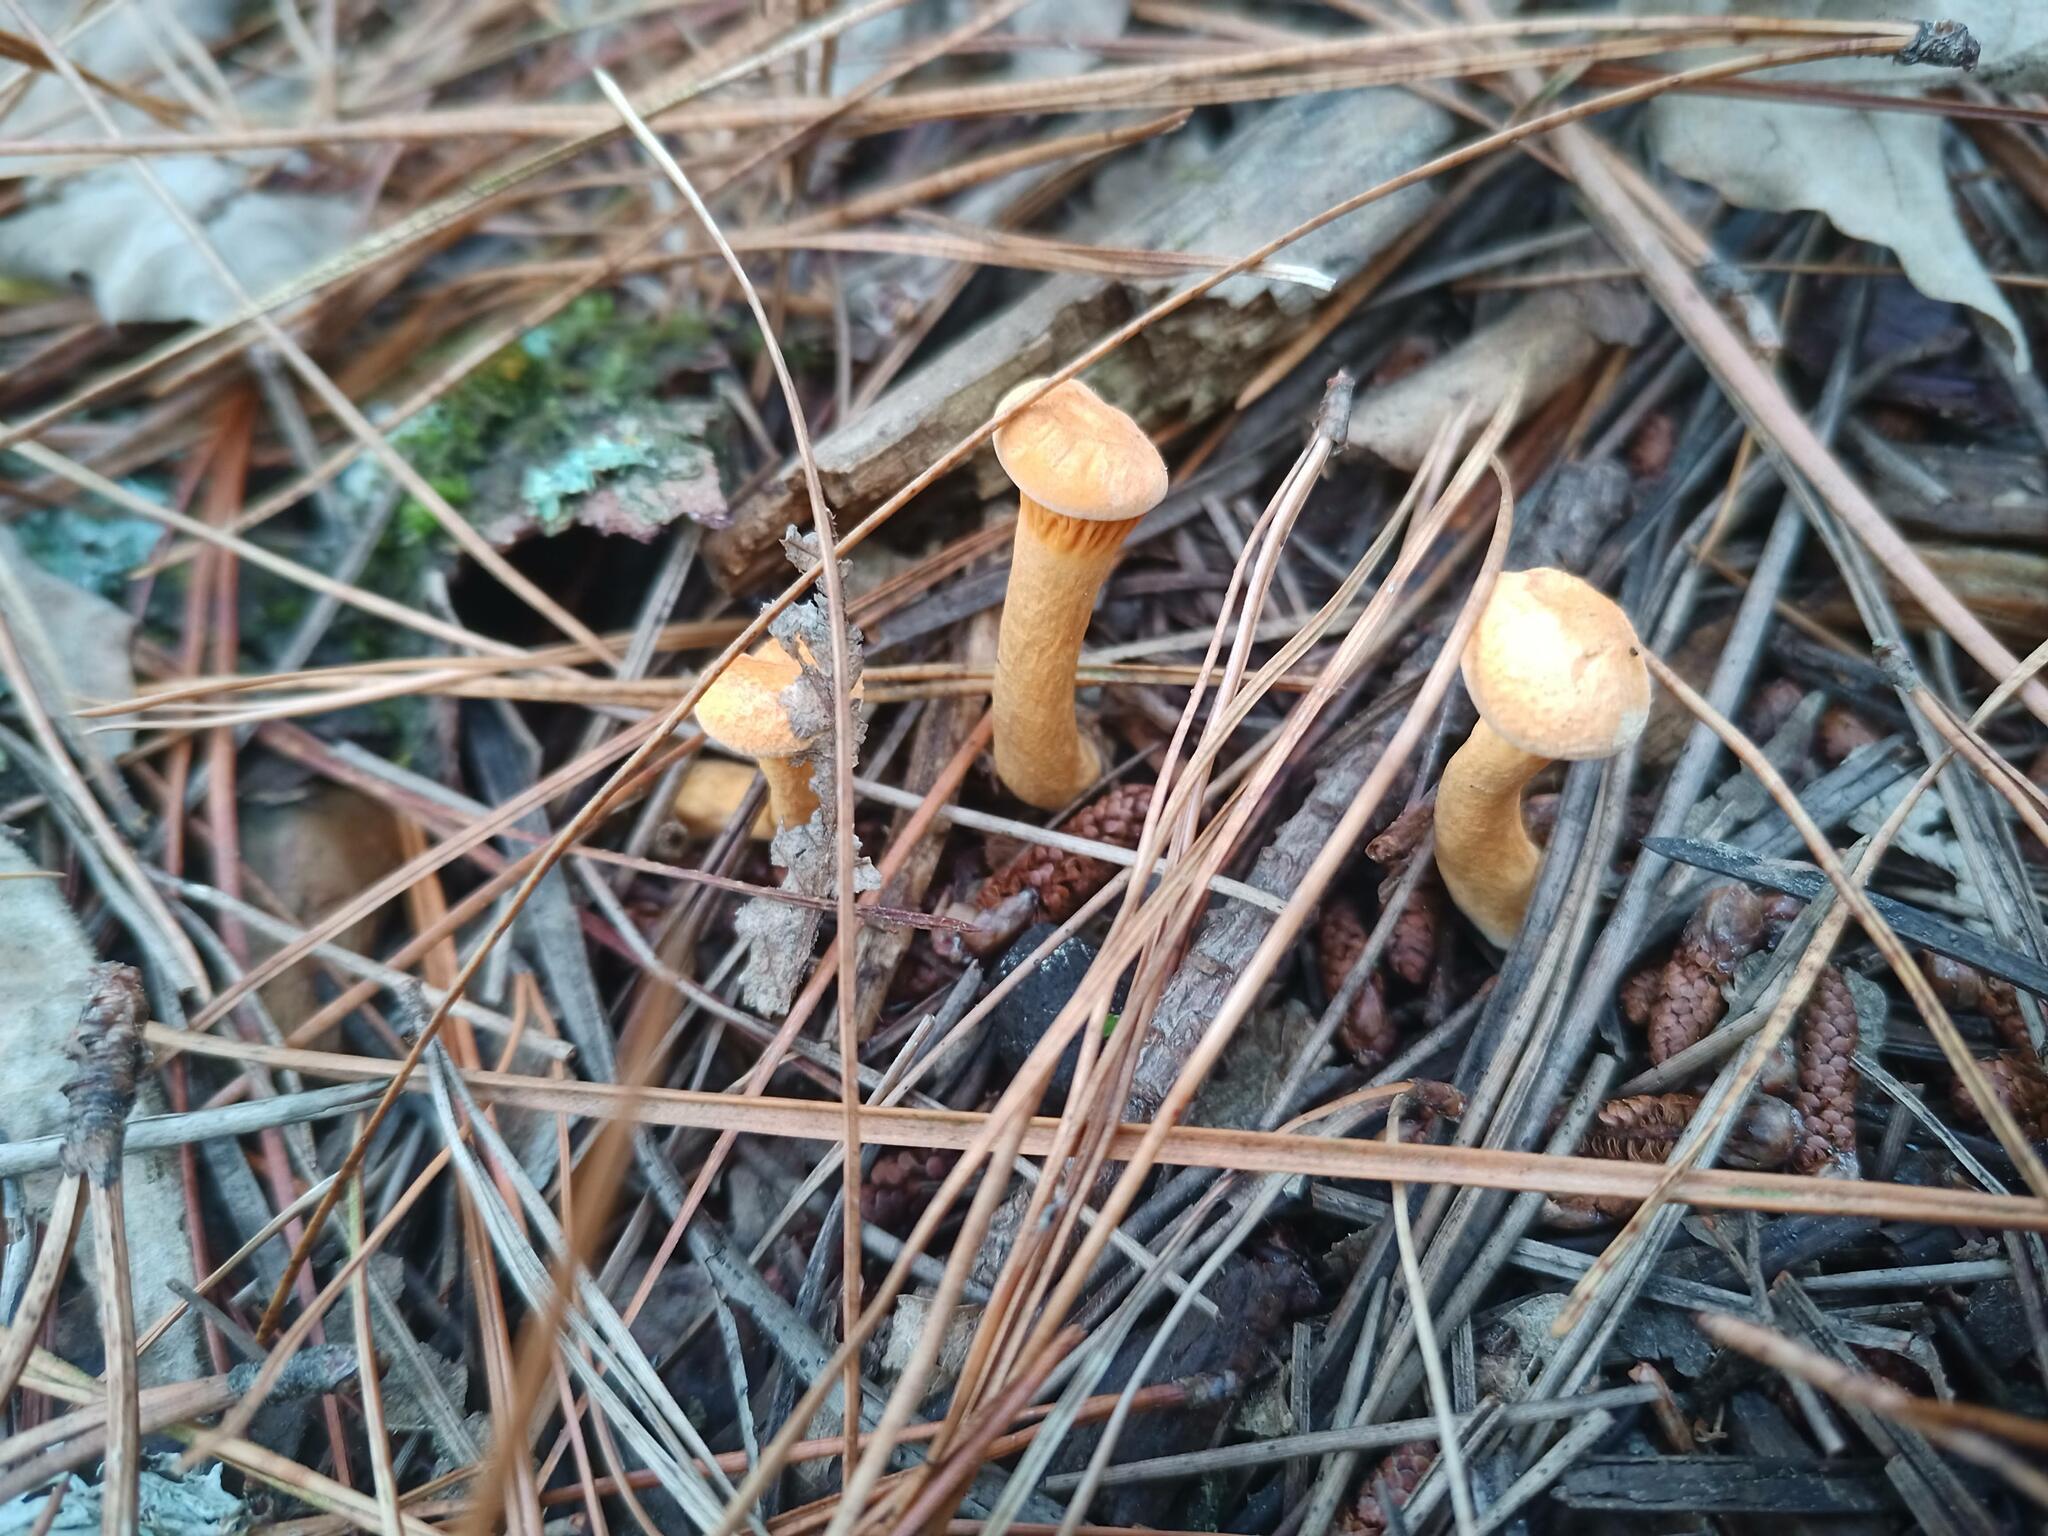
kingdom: Fungi
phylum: Basidiomycota
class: Agaricomycetes
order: Boletales
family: Hygrophoropsidaceae
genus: Hygrophoropsis
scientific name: Hygrophoropsis aurantiaca
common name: False chanterelle
